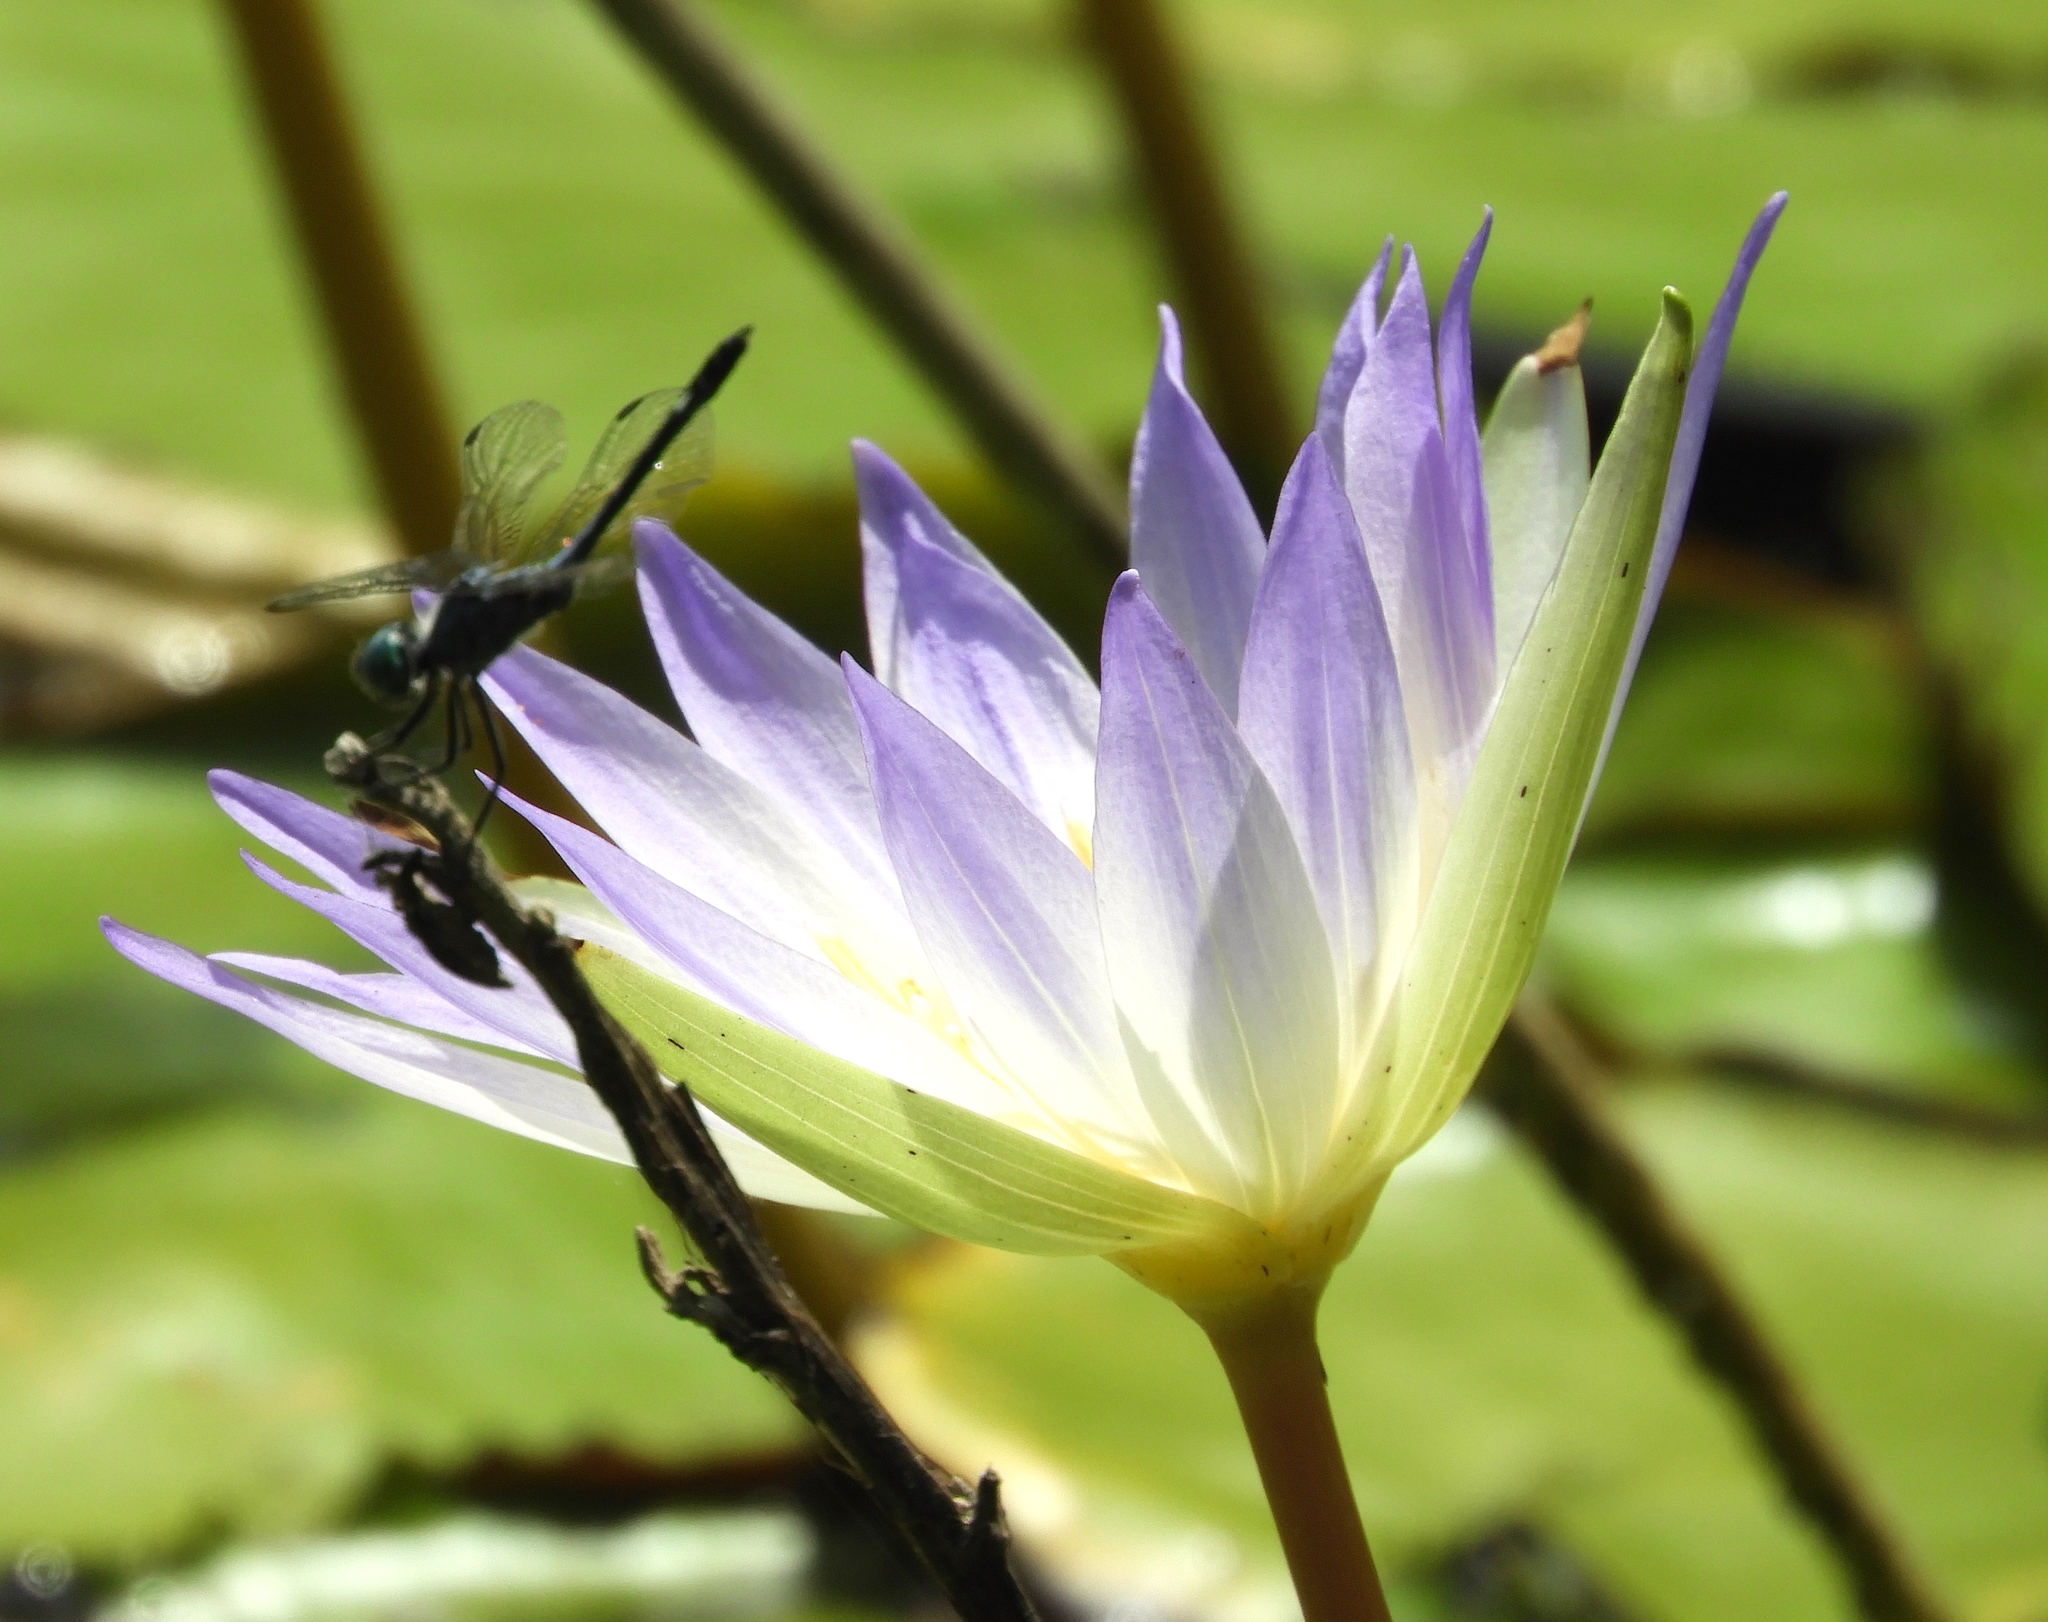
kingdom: Plantae
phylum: Tracheophyta
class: Magnoliopsida
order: Nymphaeales
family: Nymphaeaceae
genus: Nymphaea
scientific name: Nymphaea elegans
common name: Blue water-lily
